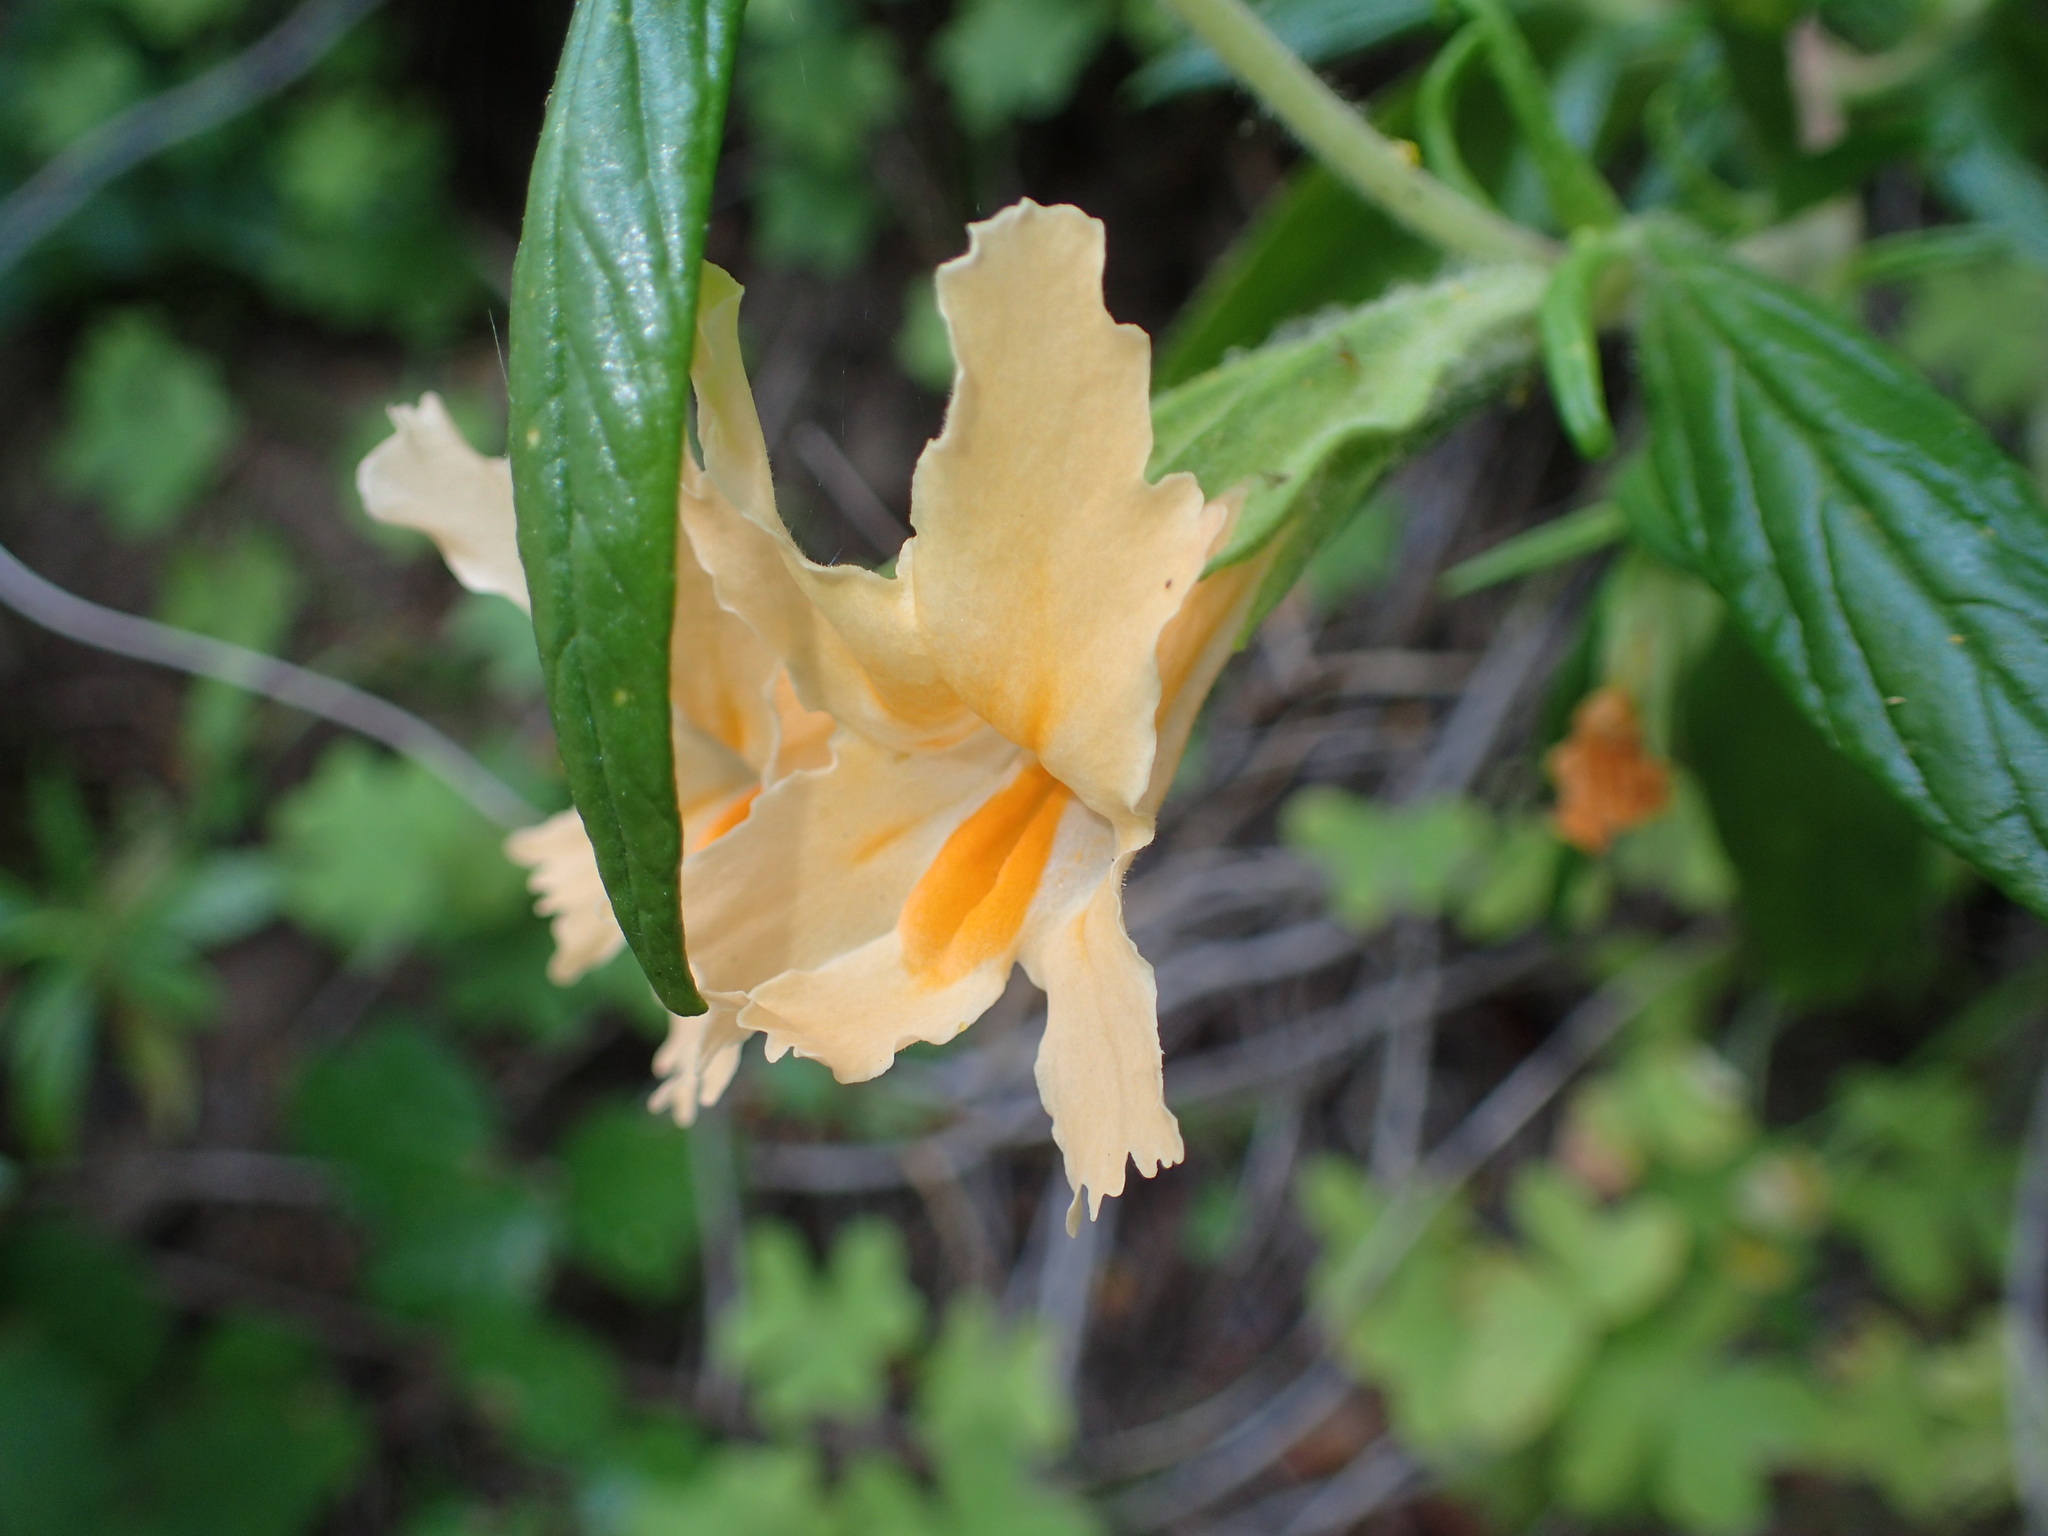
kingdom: Plantae
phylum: Tracheophyta
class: Magnoliopsida
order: Lamiales
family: Phrymaceae
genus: Diplacus
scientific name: Diplacus longiflorus
